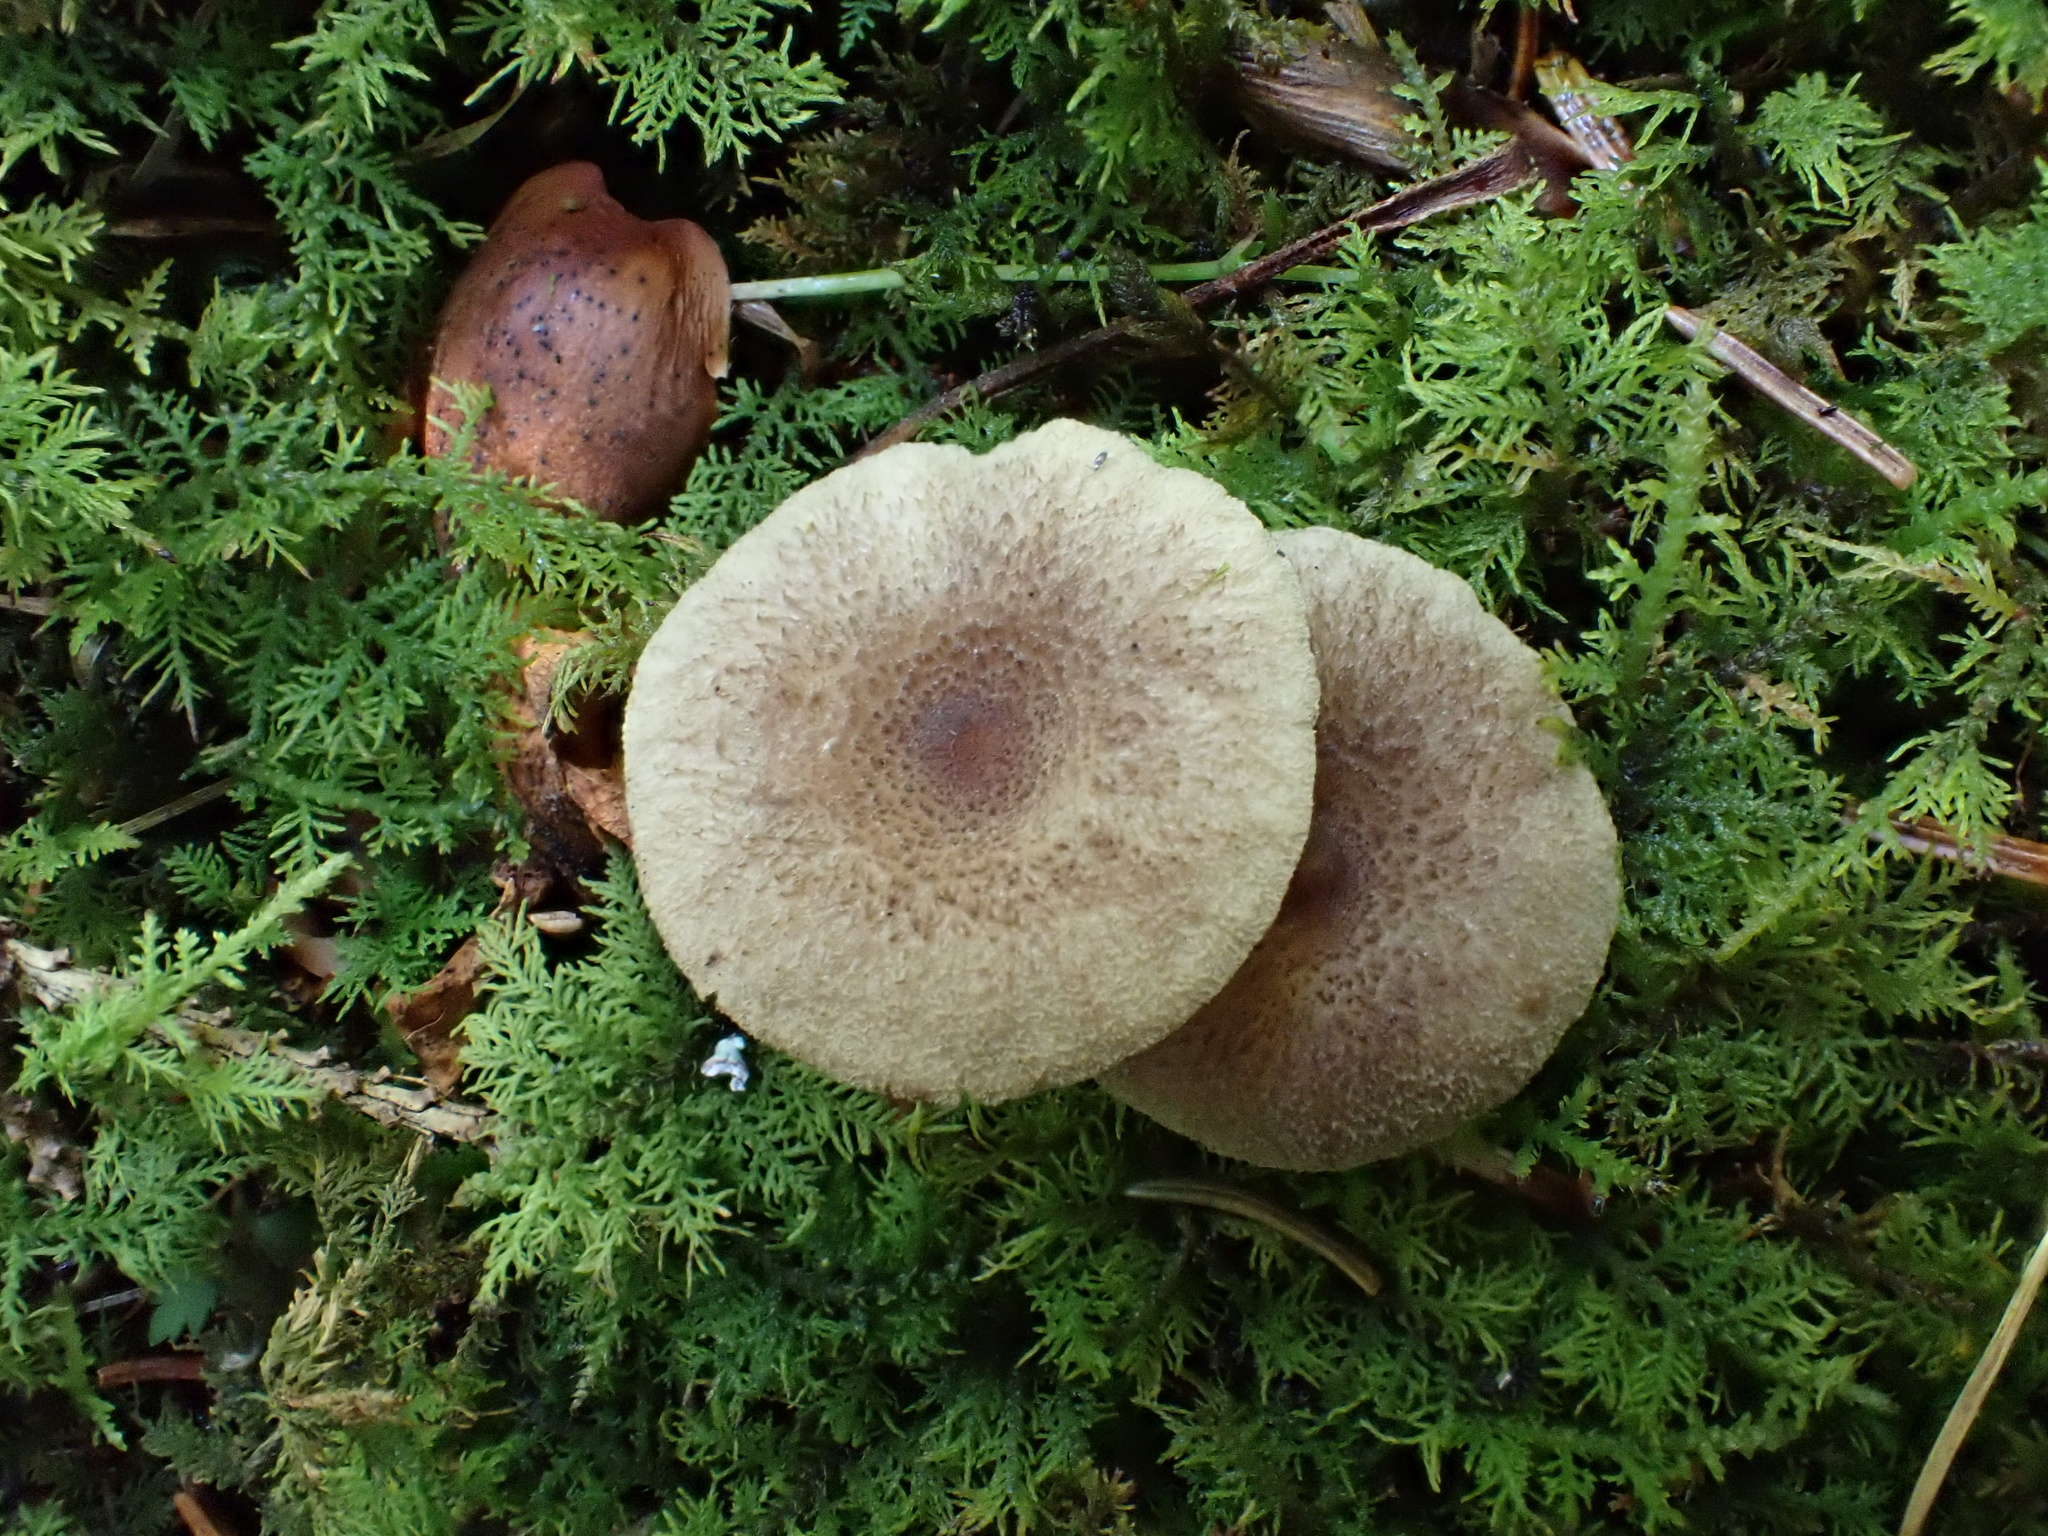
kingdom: Fungi
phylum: Basidiomycota
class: Agaricomycetes
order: Russulales
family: Russulaceae
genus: Lactarius
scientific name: Lactarius griseus
